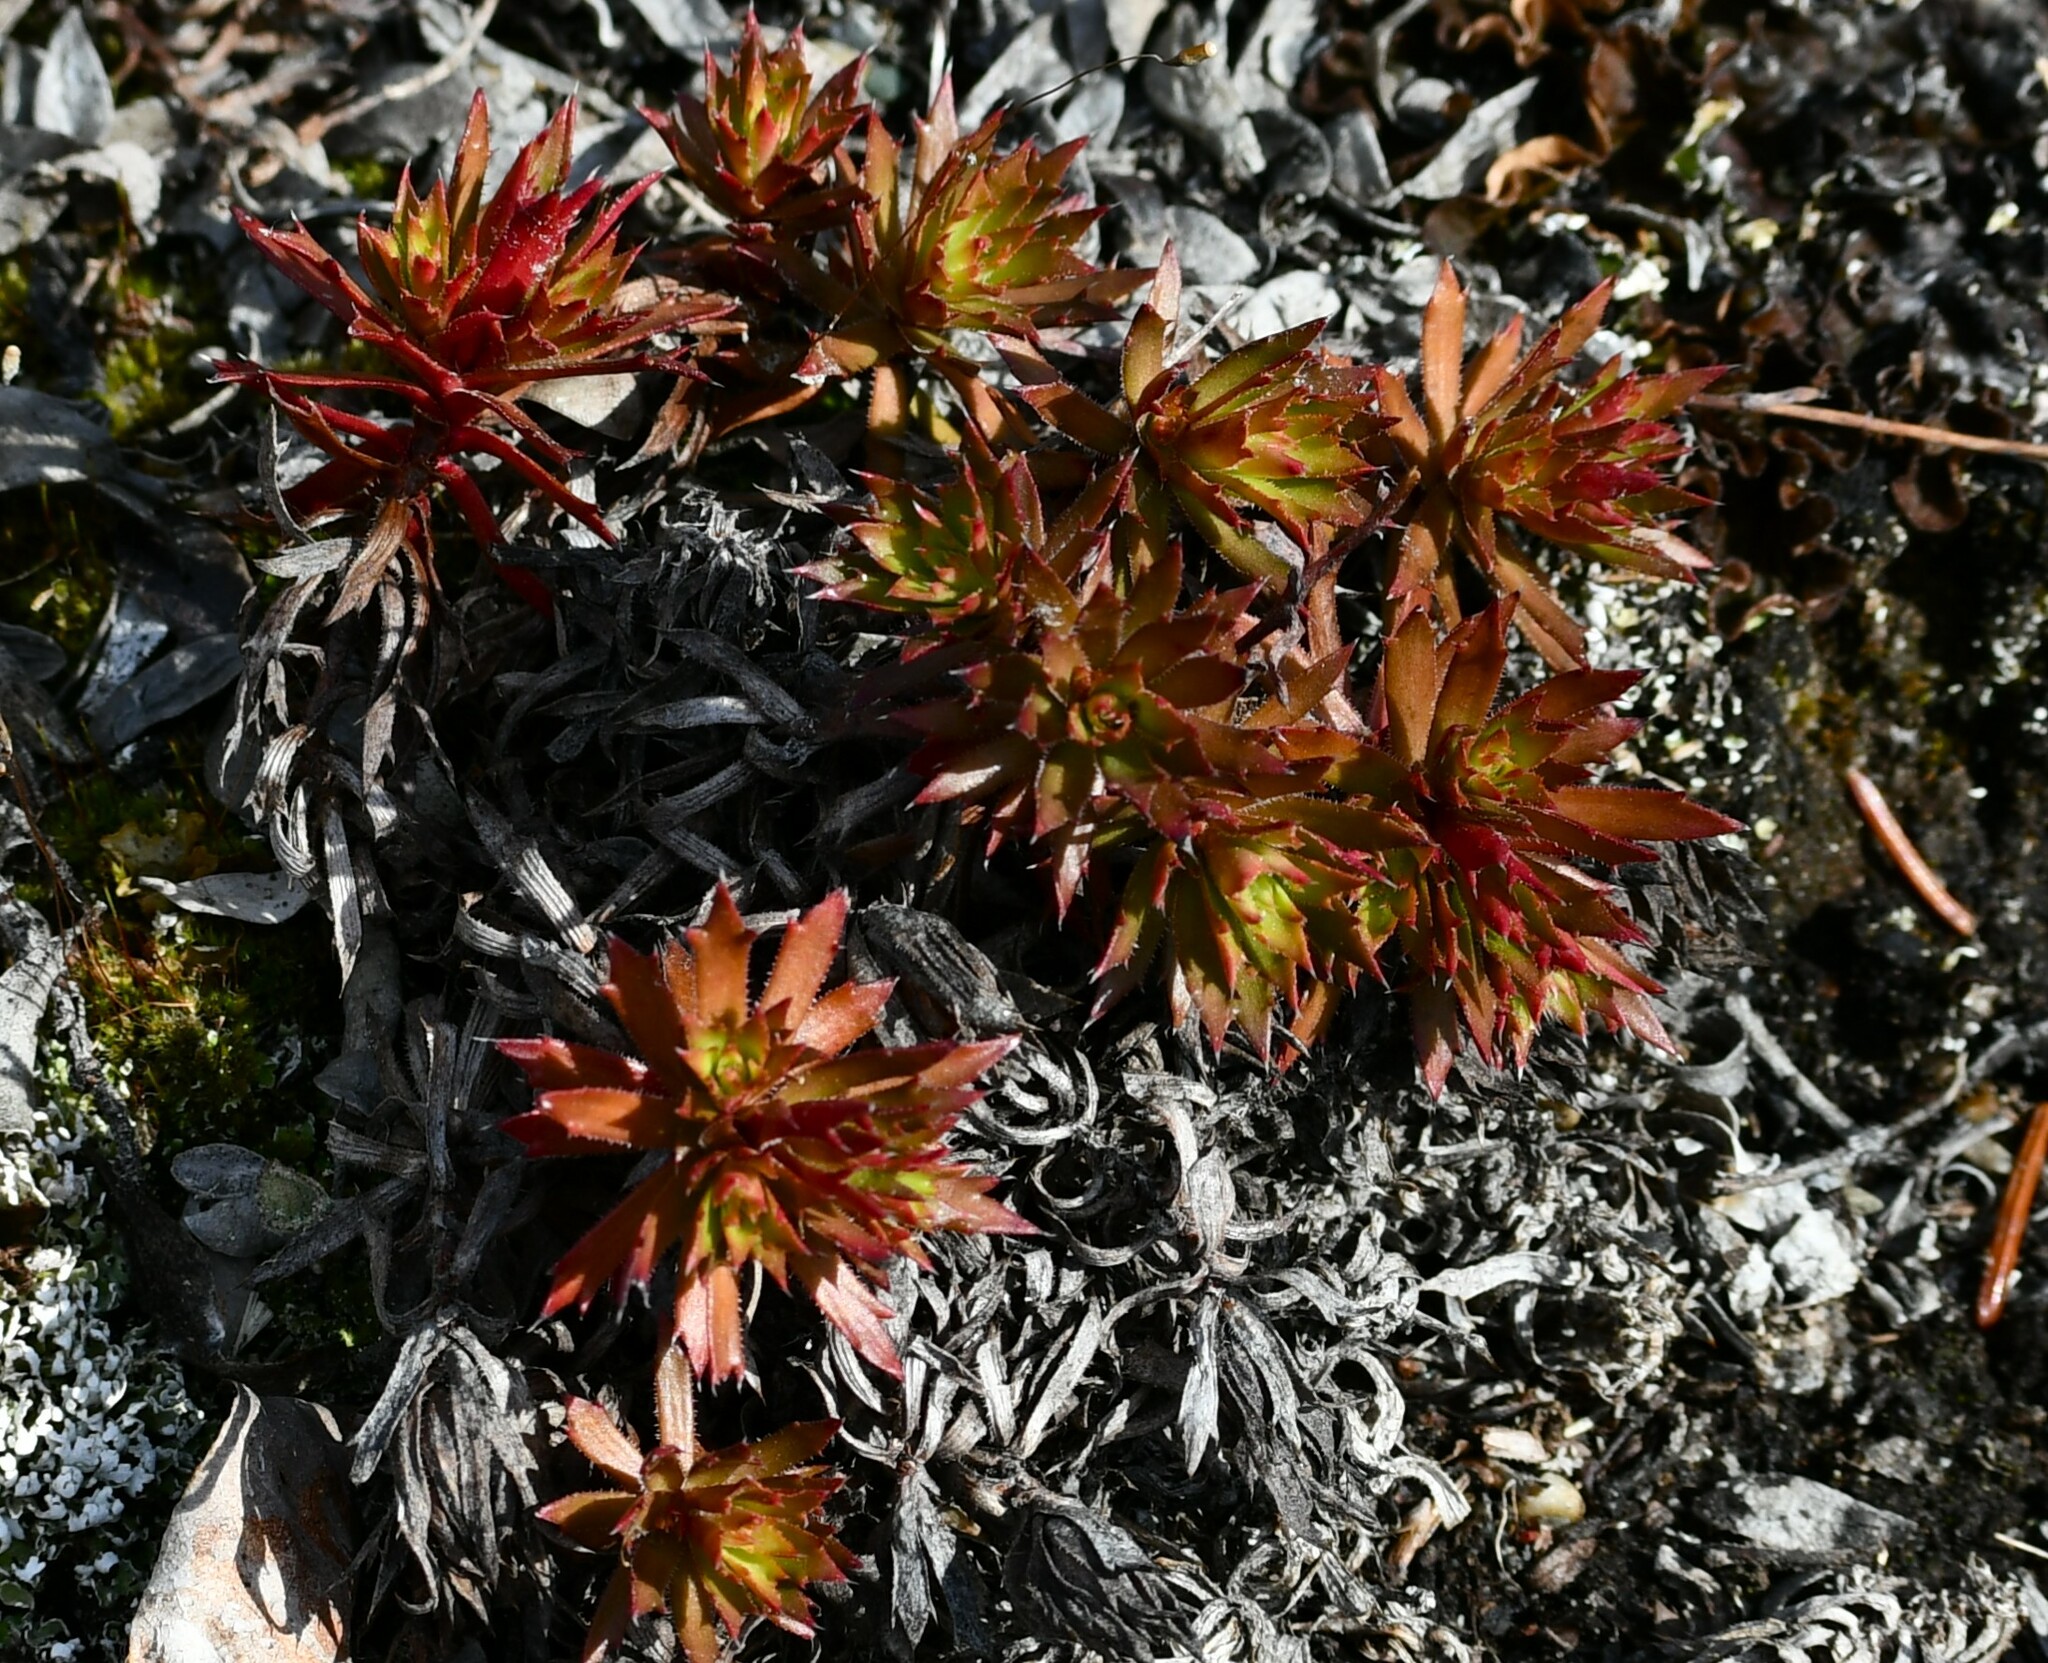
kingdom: Plantae
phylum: Tracheophyta
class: Magnoliopsida
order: Saxifragales
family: Saxifragaceae
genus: Saxifraga
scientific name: Saxifraga tricuspidata
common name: Prickly saxifrage
